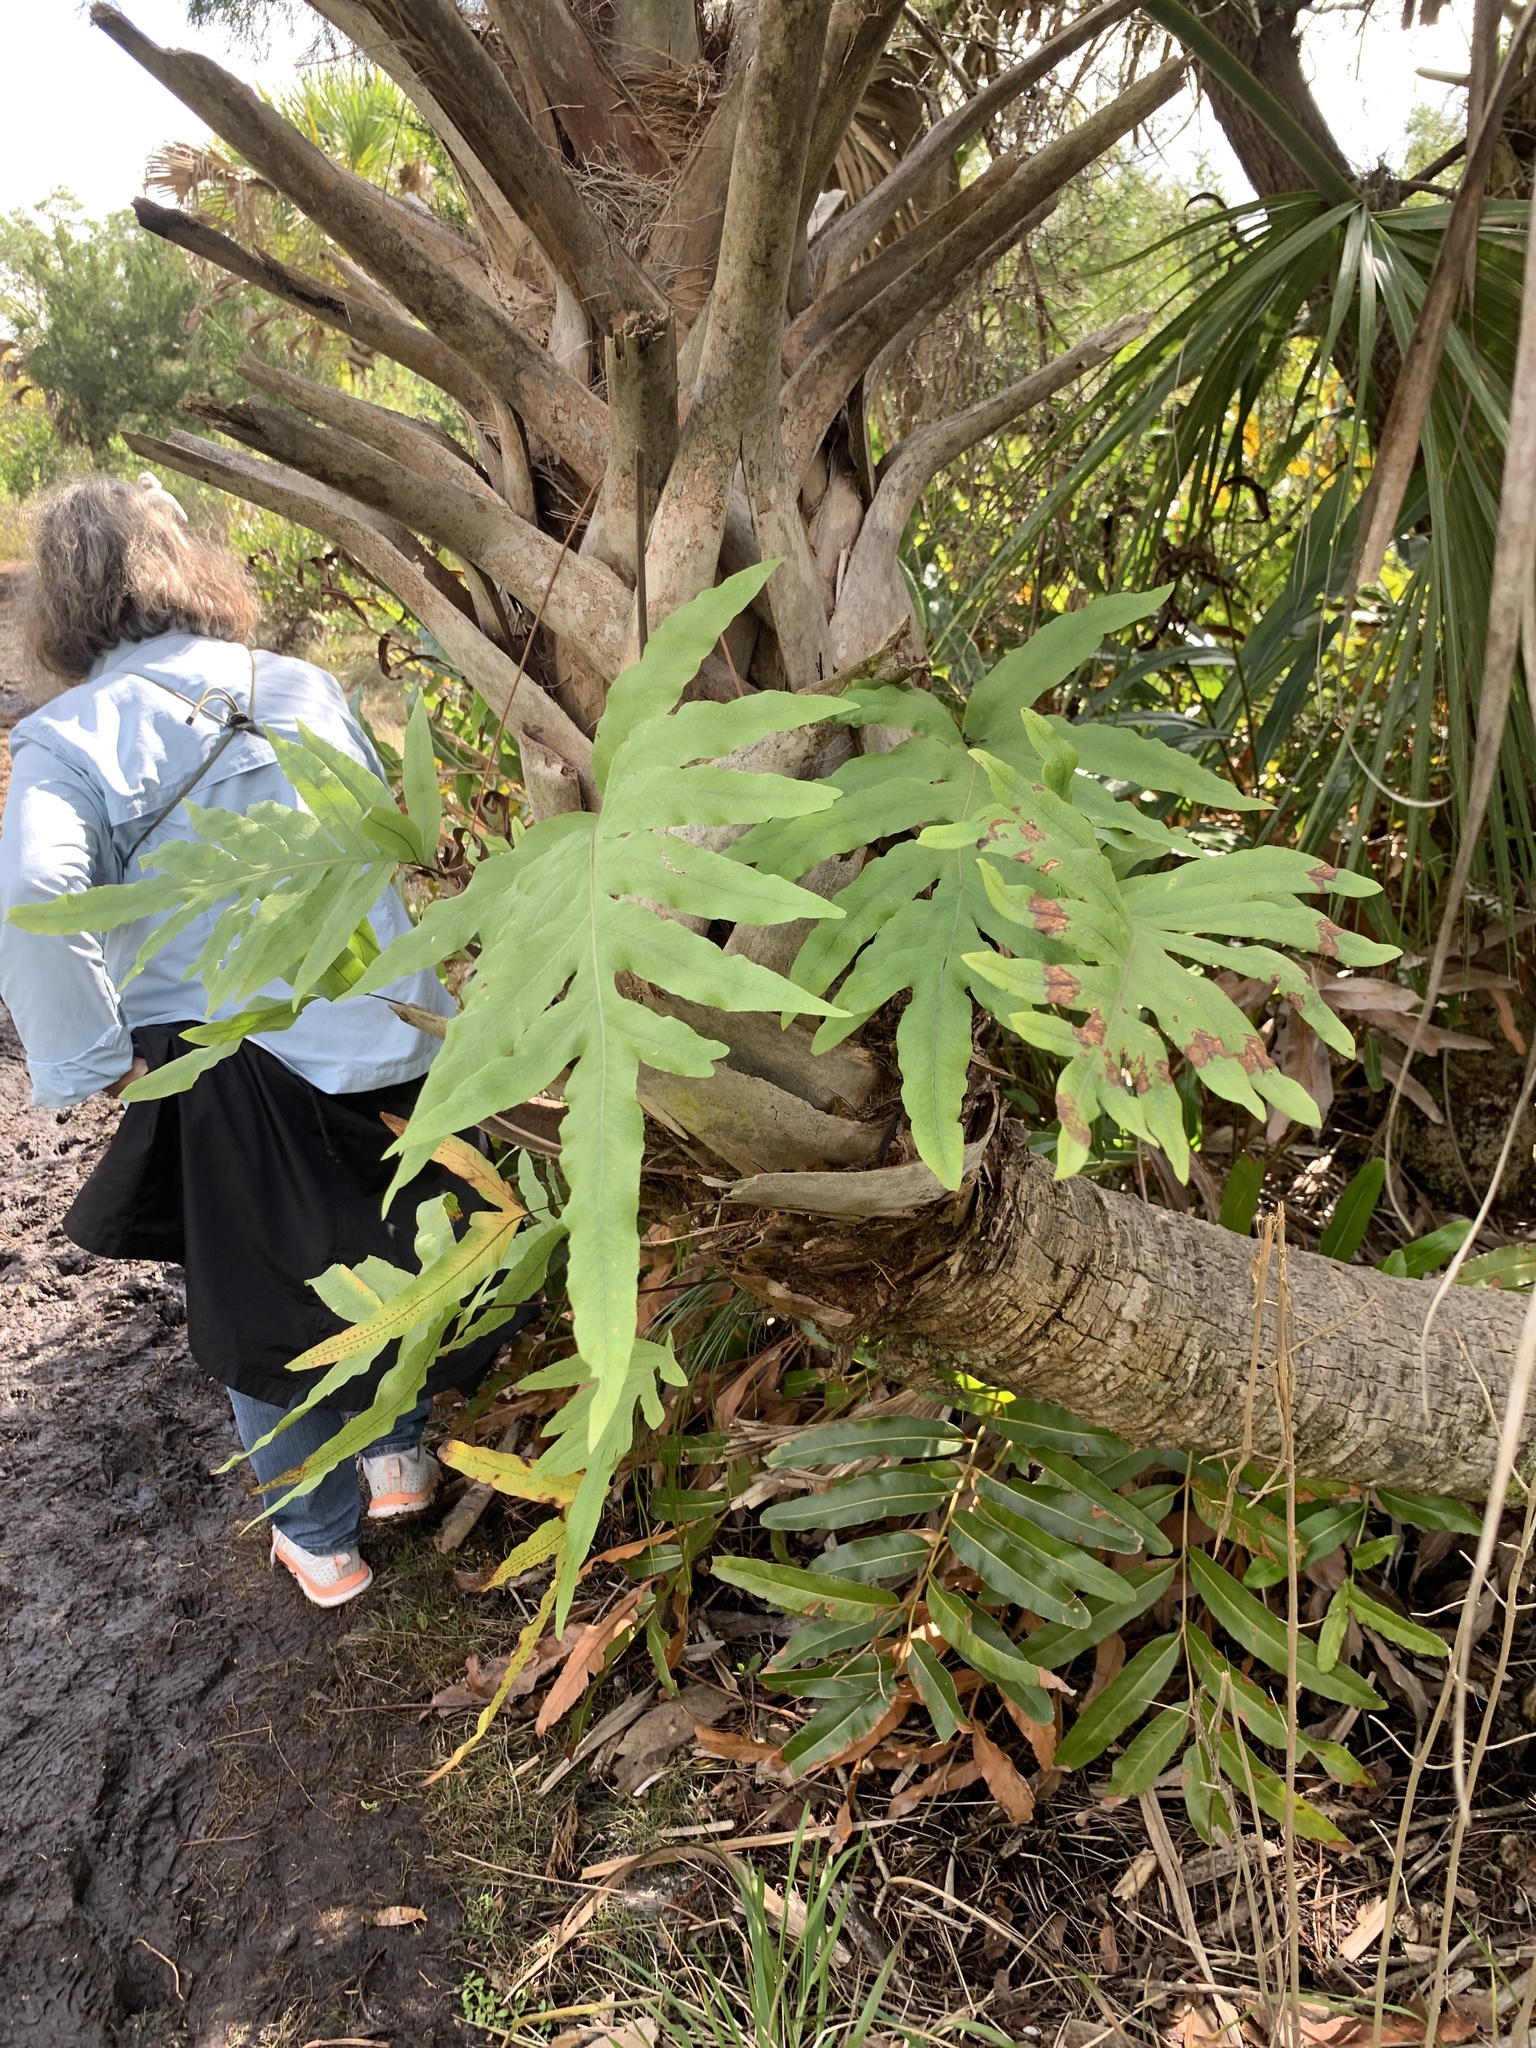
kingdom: Plantae
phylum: Tracheophyta
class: Polypodiopsida
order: Polypodiales
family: Polypodiaceae
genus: Phlebodium
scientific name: Phlebodium aureum
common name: Gold-foot fern
